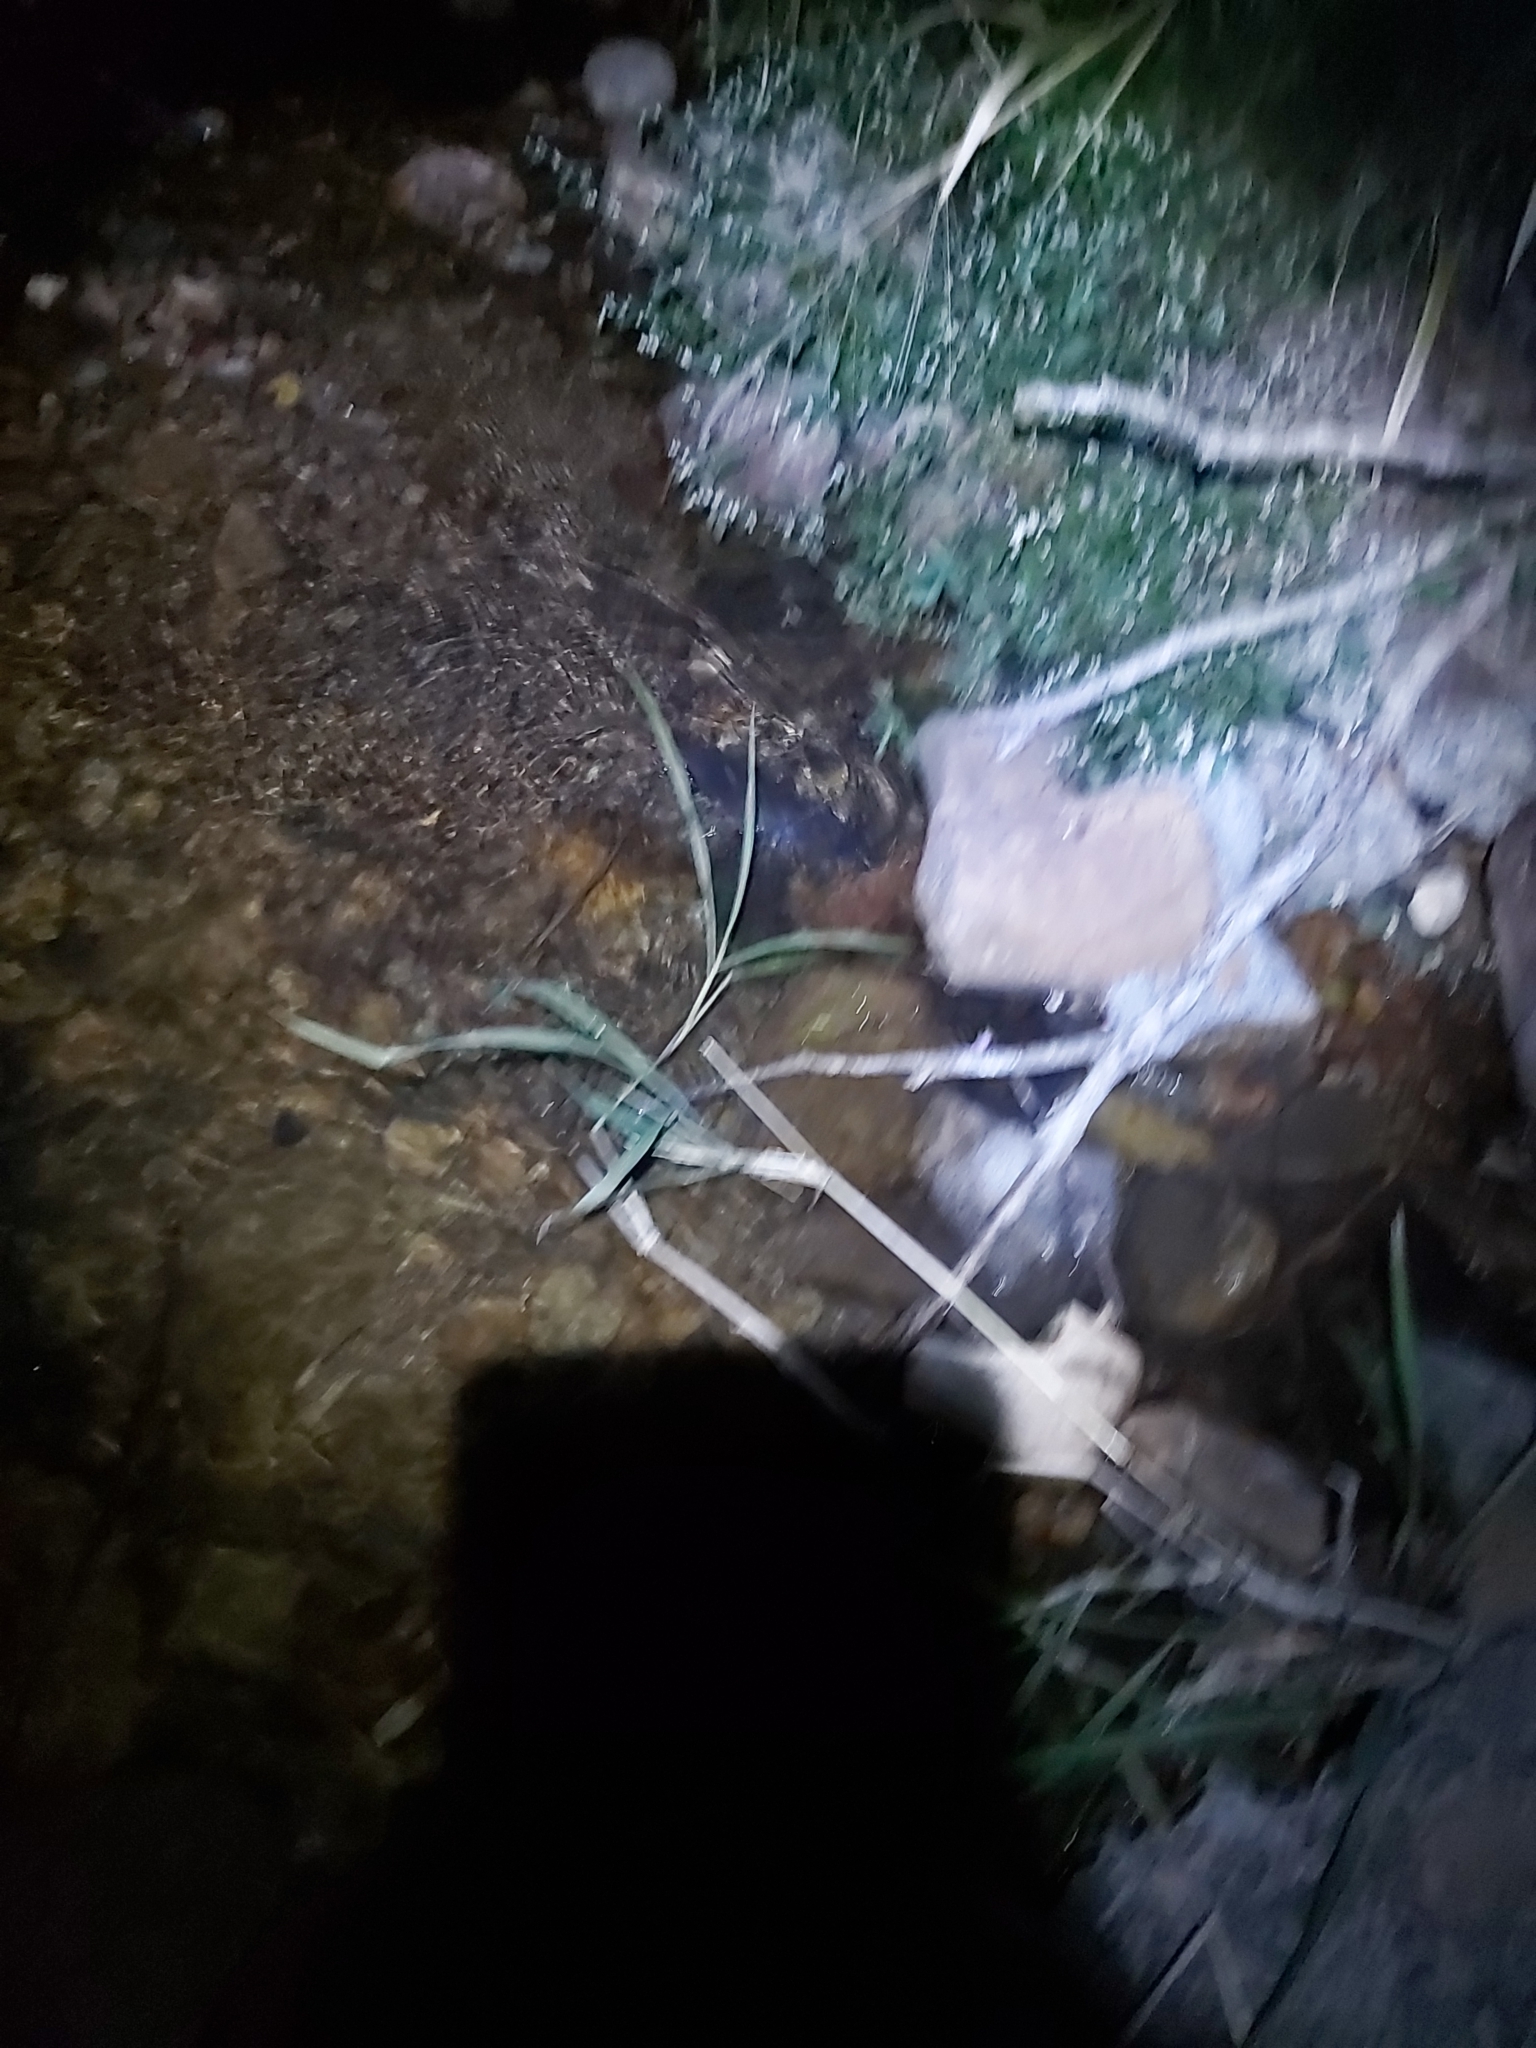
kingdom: Animalia
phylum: Chordata
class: Mammalia
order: Monotremata
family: Ornithorhynchidae
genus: Ornithorhynchus
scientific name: Ornithorhynchus anatinus
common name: Platypus
